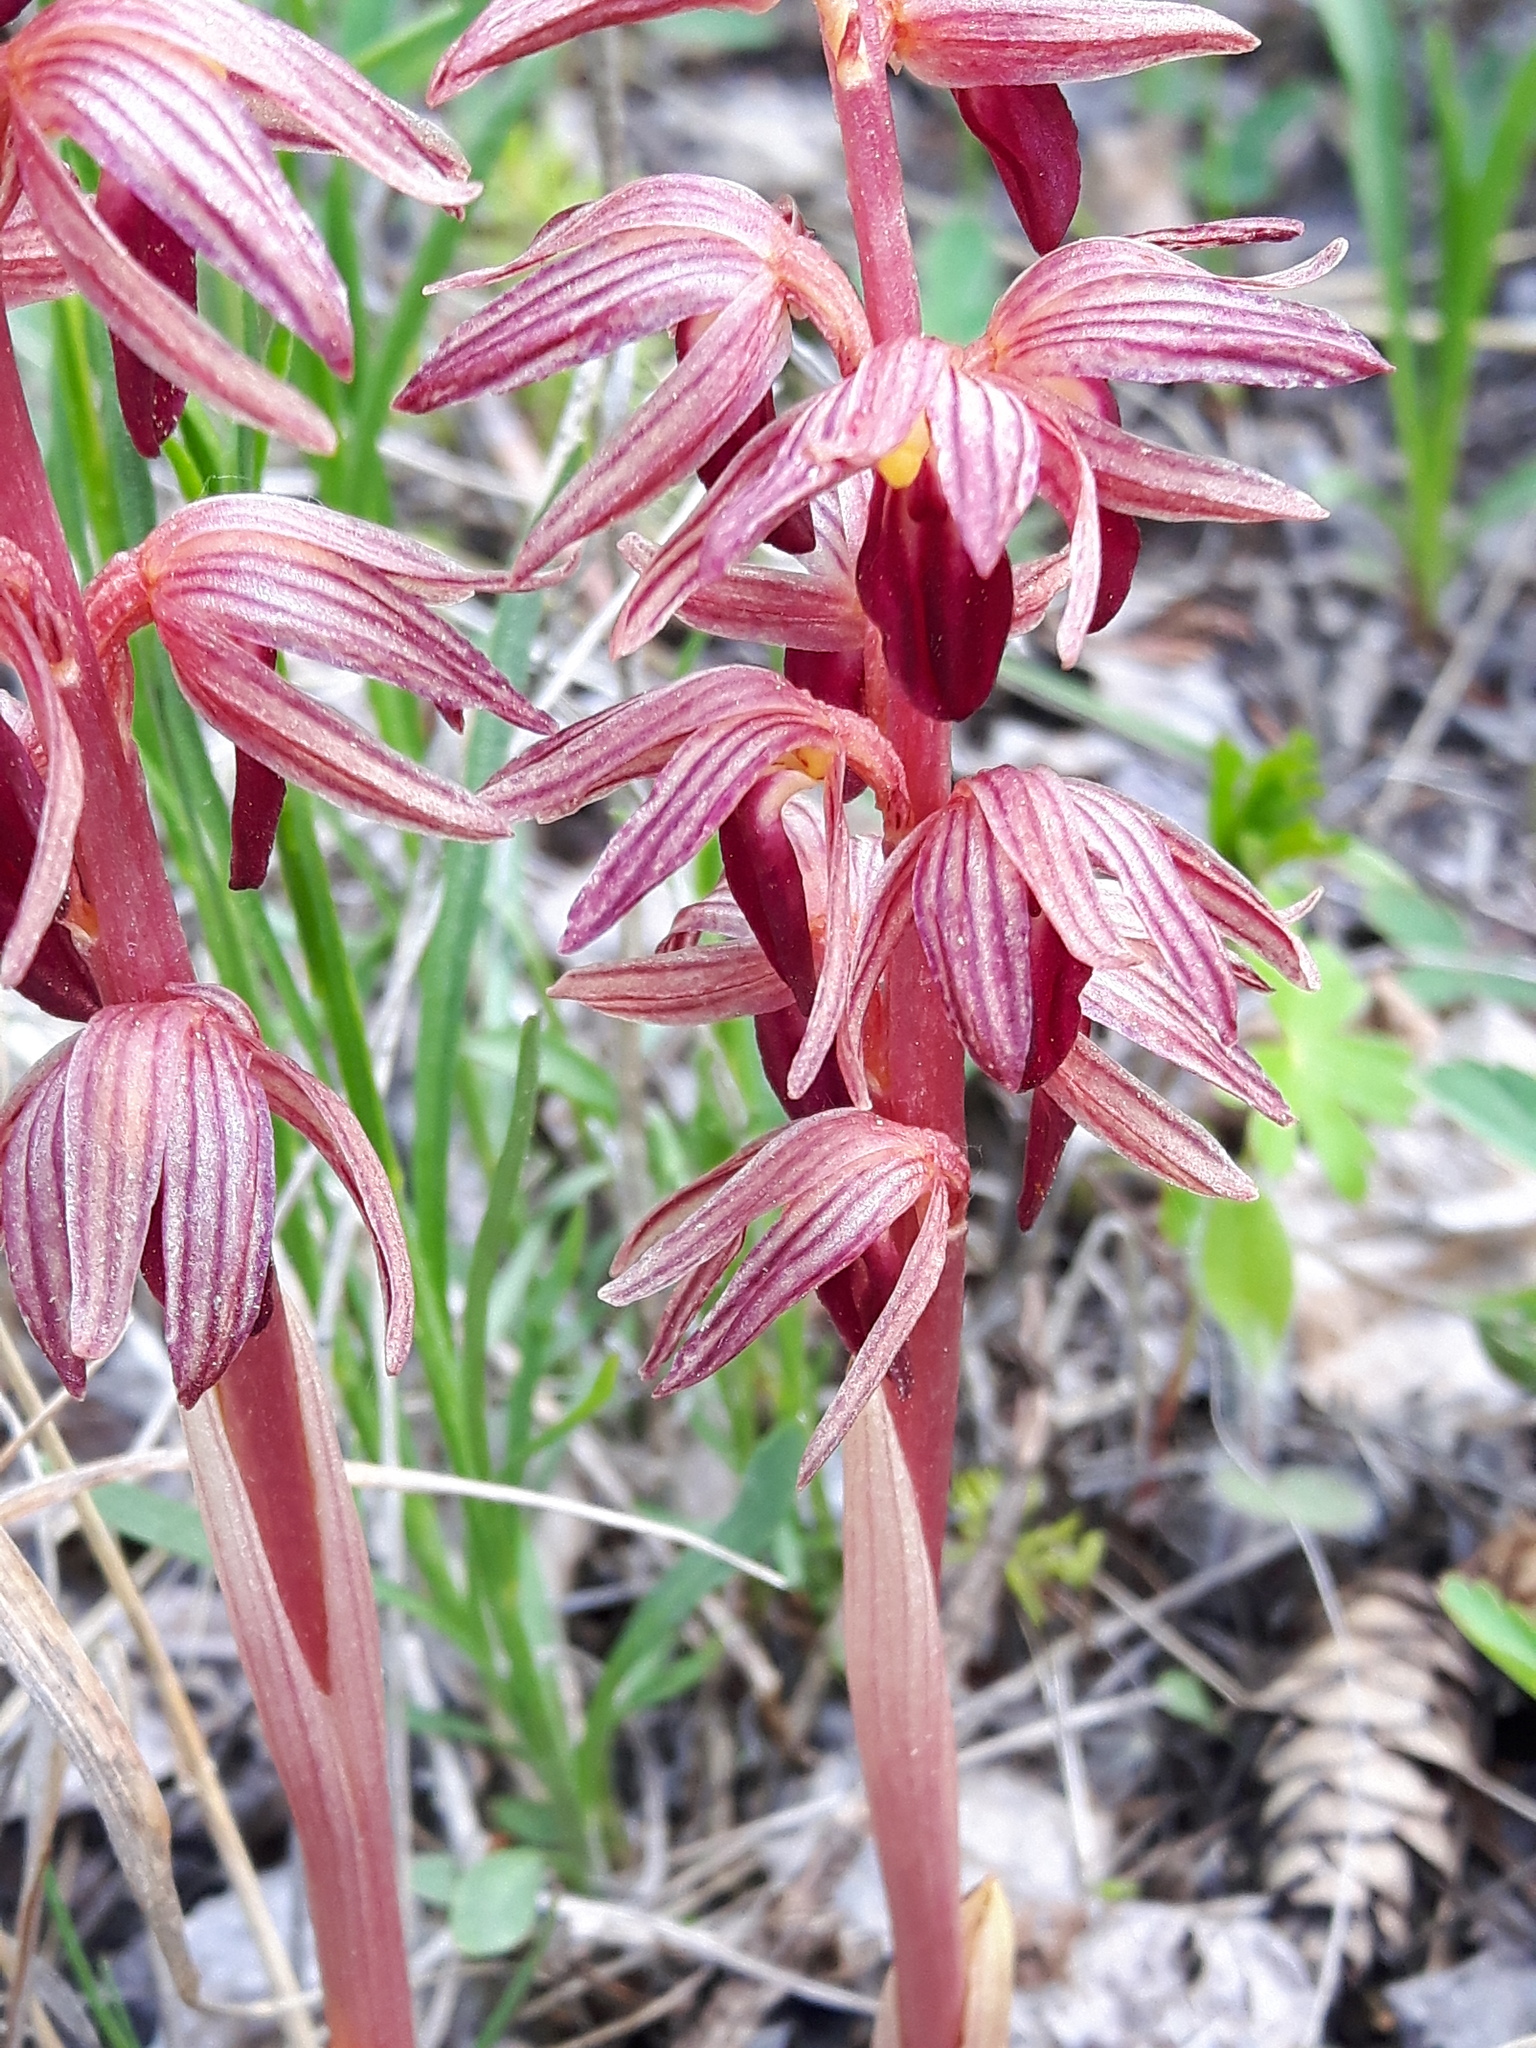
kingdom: Plantae
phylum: Tracheophyta
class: Liliopsida
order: Asparagales
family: Orchidaceae
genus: Corallorhiza
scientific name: Corallorhiza striata
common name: Hooded coralroot
